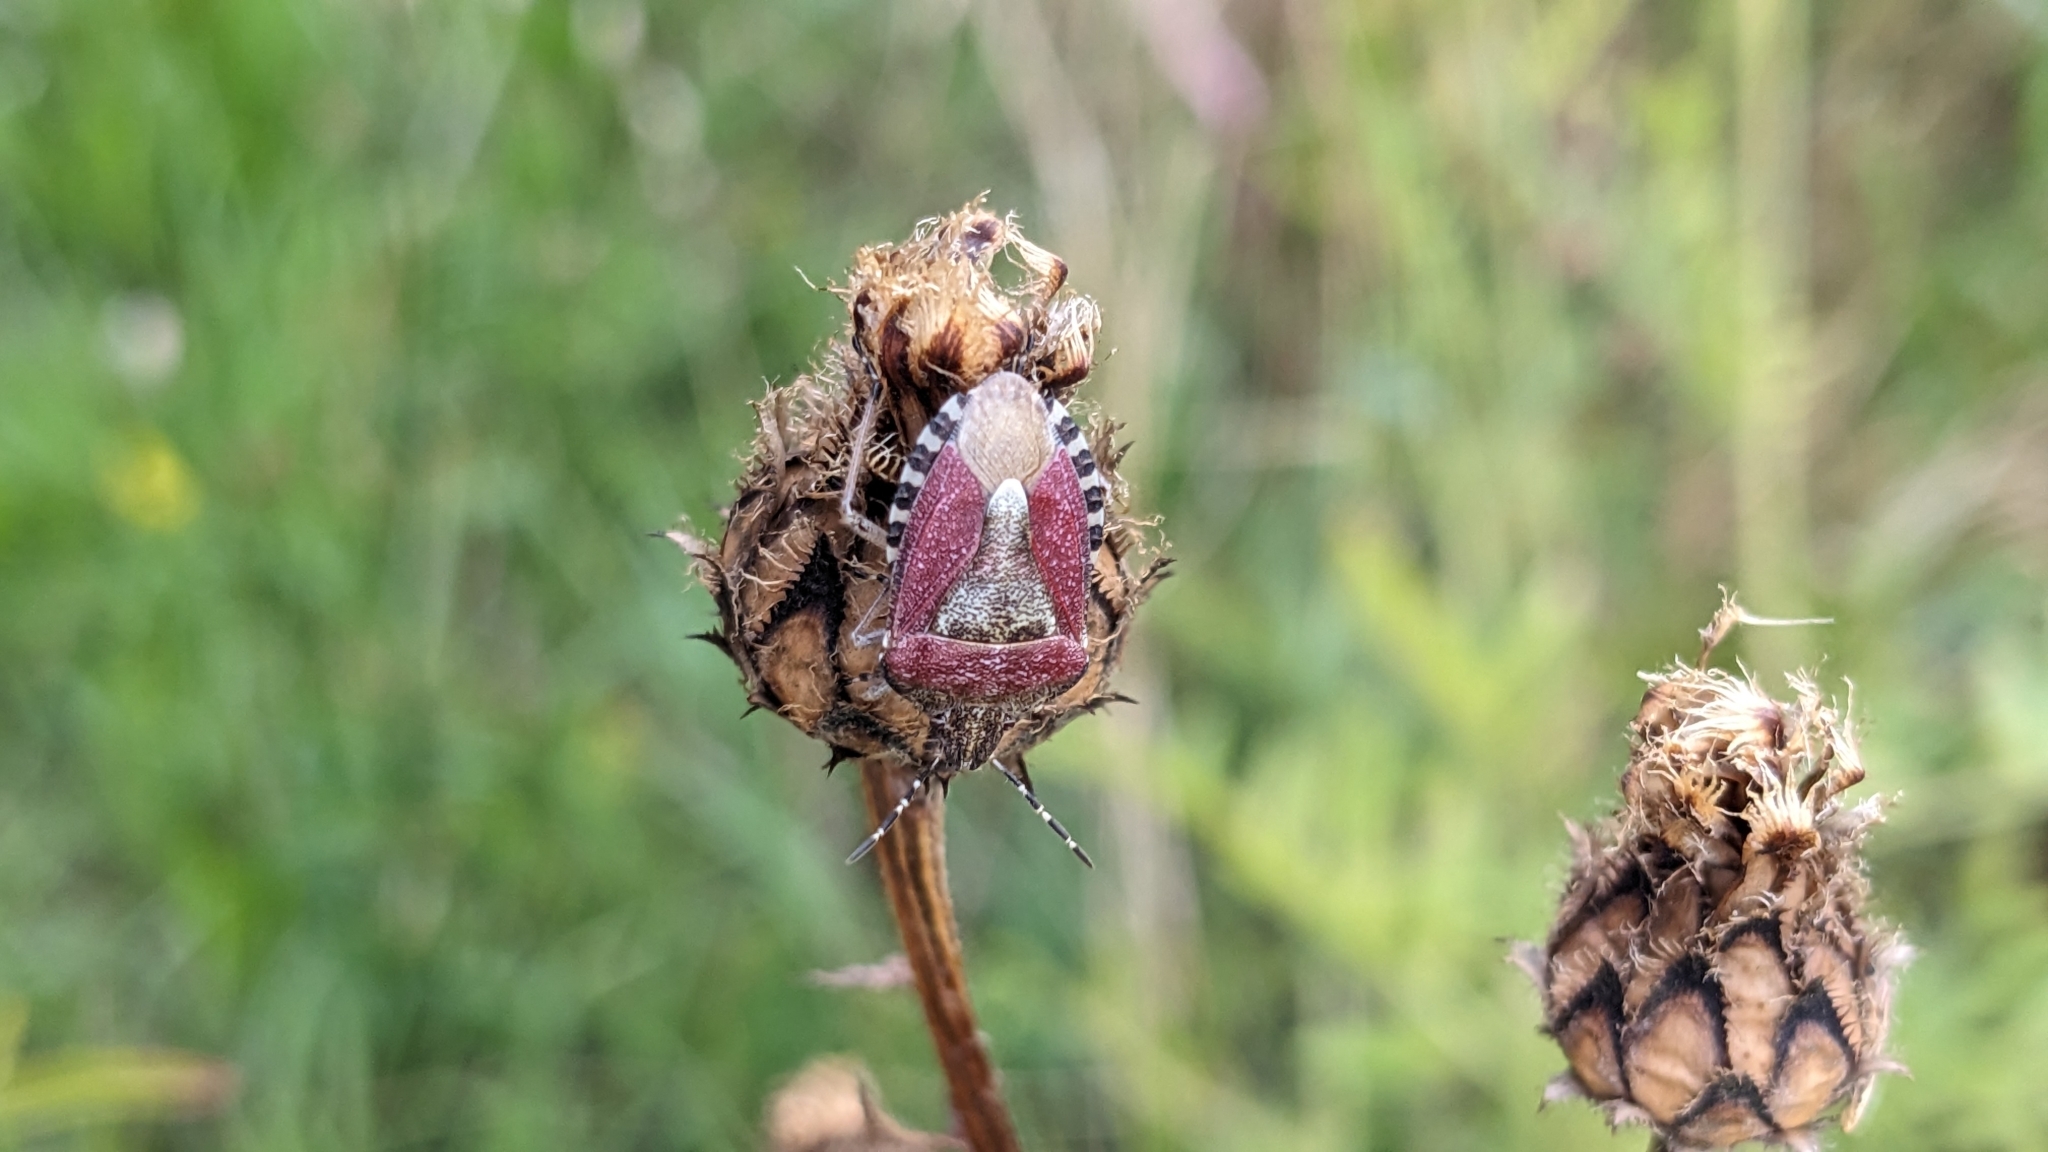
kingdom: Animalia
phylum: Arthropoda
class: Insecta
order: Hemiptera
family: Pentatomidae
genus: Dolycoris
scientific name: Dolycoris baccarum
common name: Sloe bug
